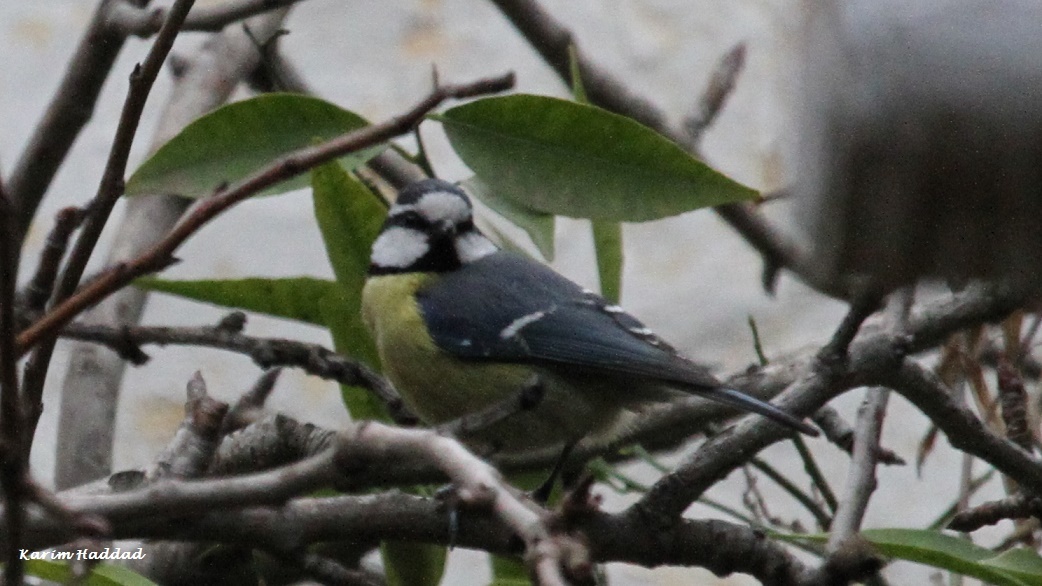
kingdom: Animalia
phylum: Chordata
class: Aves
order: Passeriformes
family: Paridae
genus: Cyanistes
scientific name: Cyanistes teneriffae
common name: African blue tit
